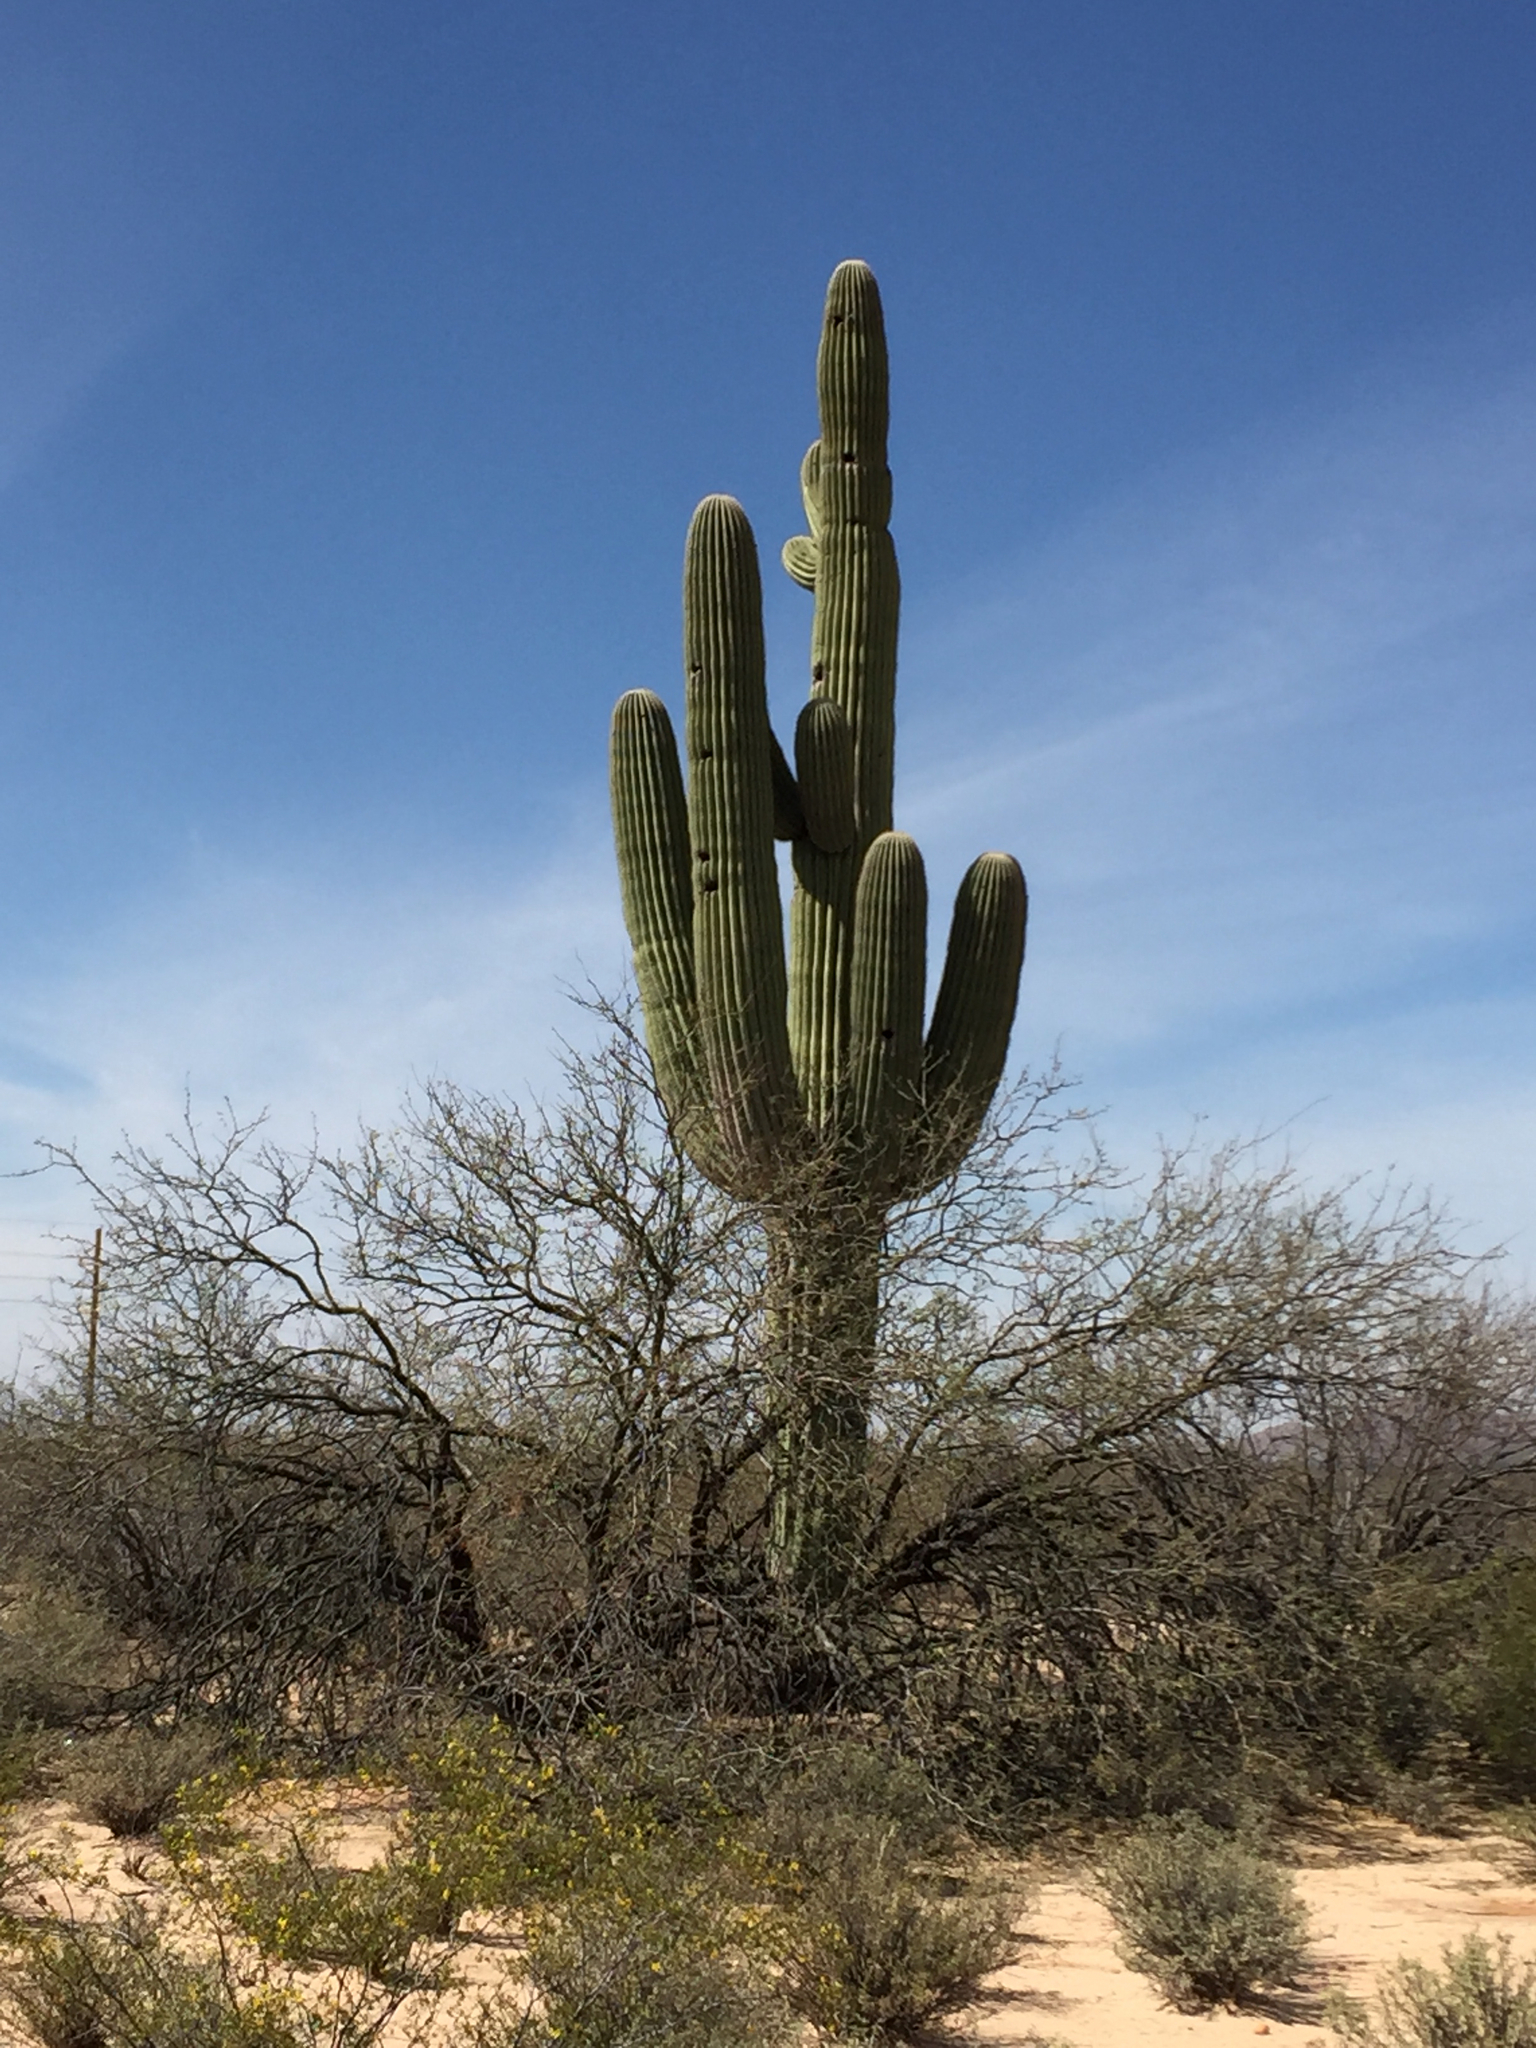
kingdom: Plantae
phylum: Tracheophyta
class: Magnoliopsida
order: Caryophyllales
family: Cactaceae
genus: Carnegiea
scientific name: Carnegiea gigantea
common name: Saguaro
